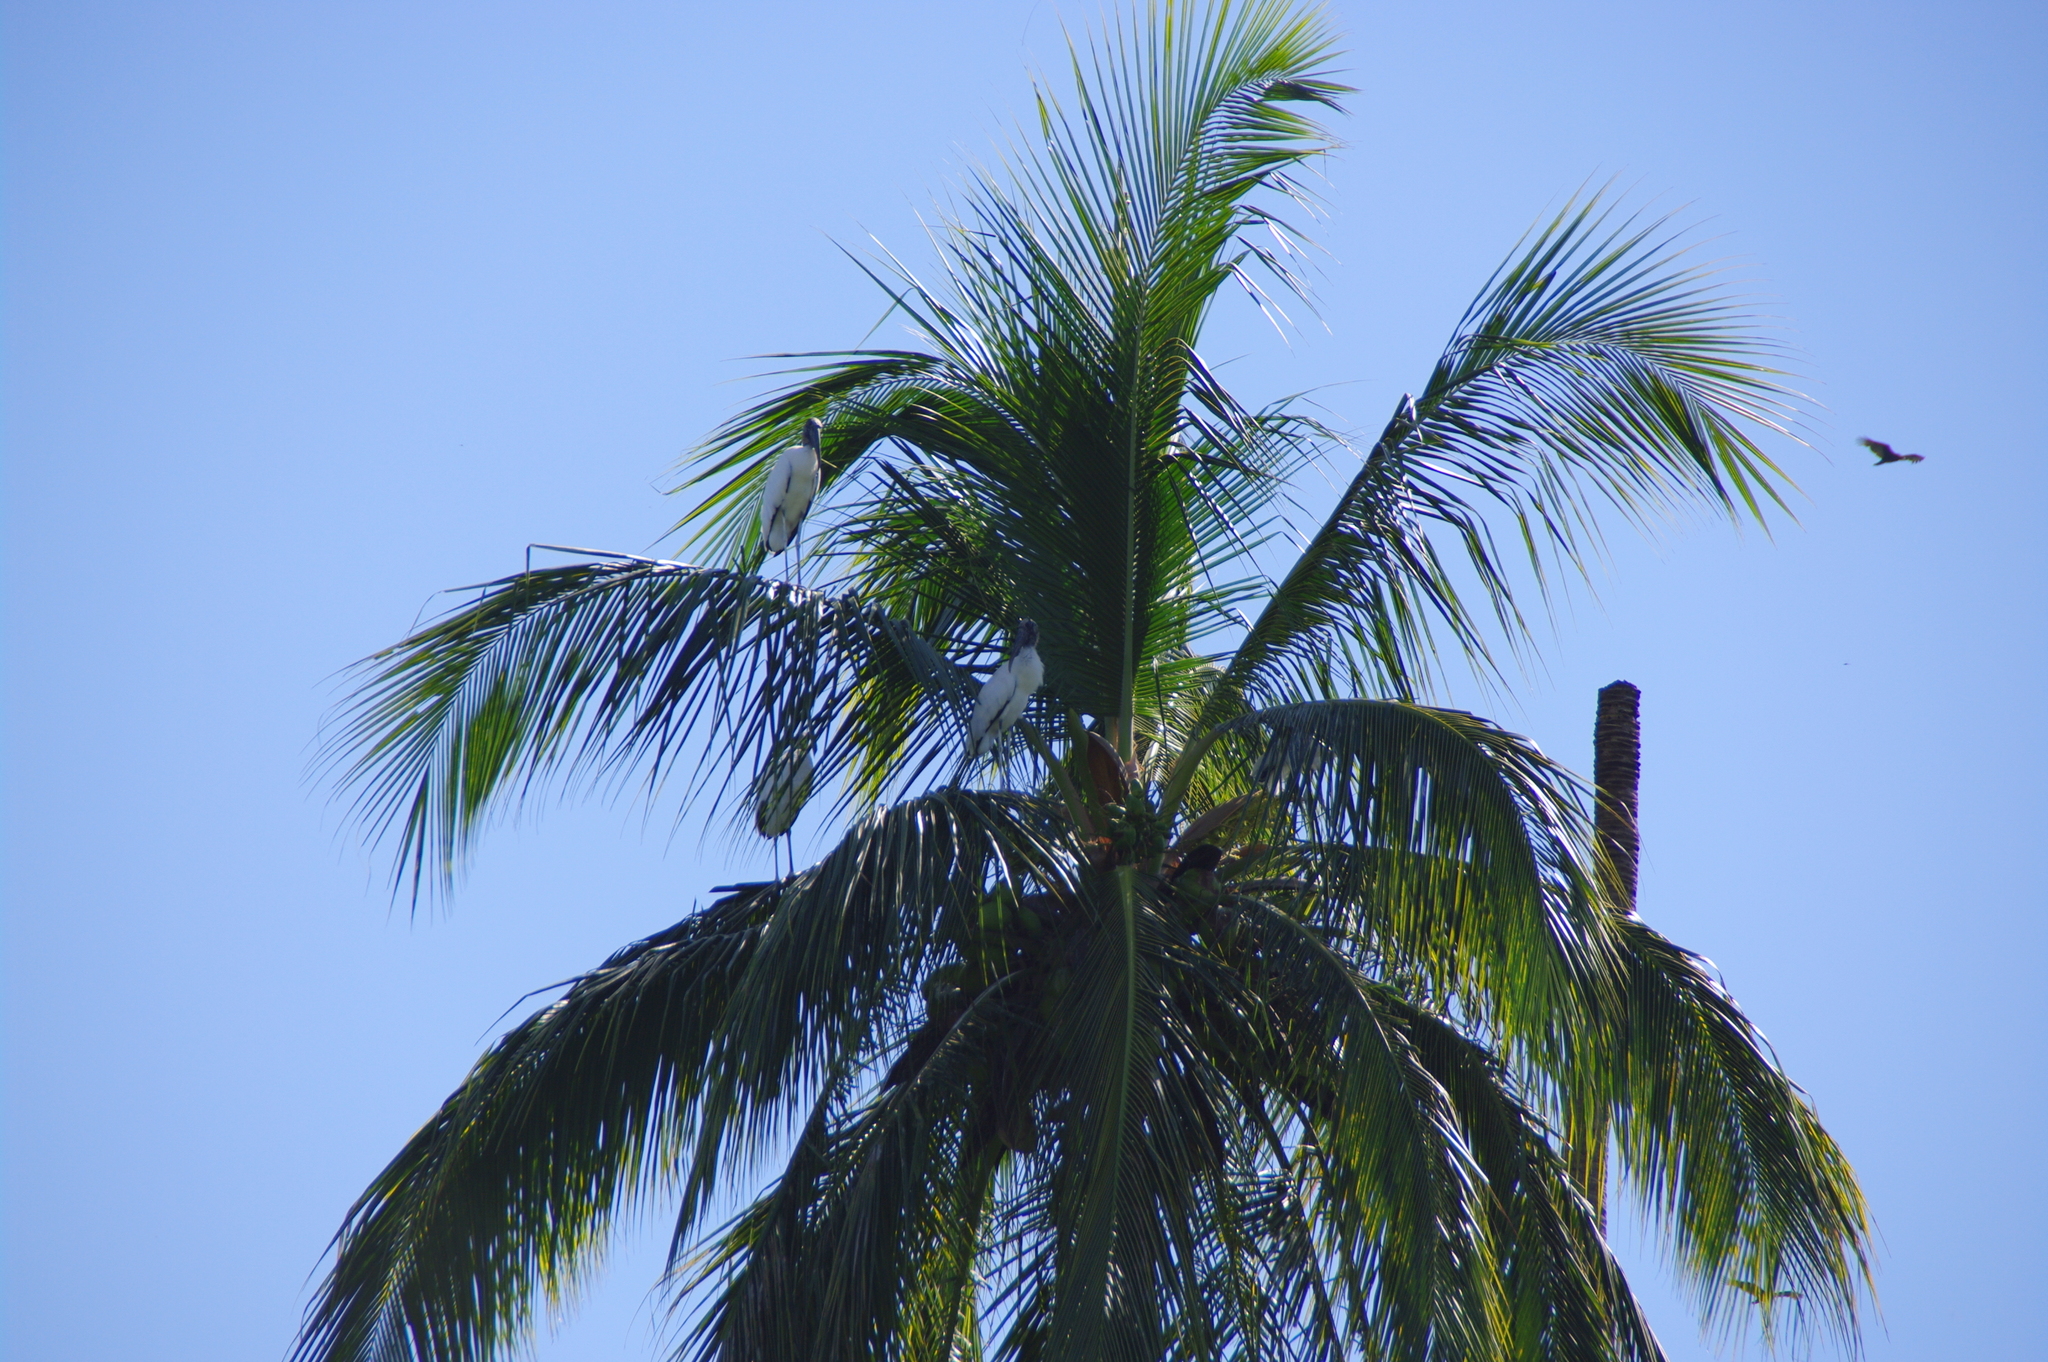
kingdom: Animalia
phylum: Chordata
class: Aves
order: Ciconiiformes
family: Ciconiidae
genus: Mycteria
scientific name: Mycteria americana
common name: Wood stork
